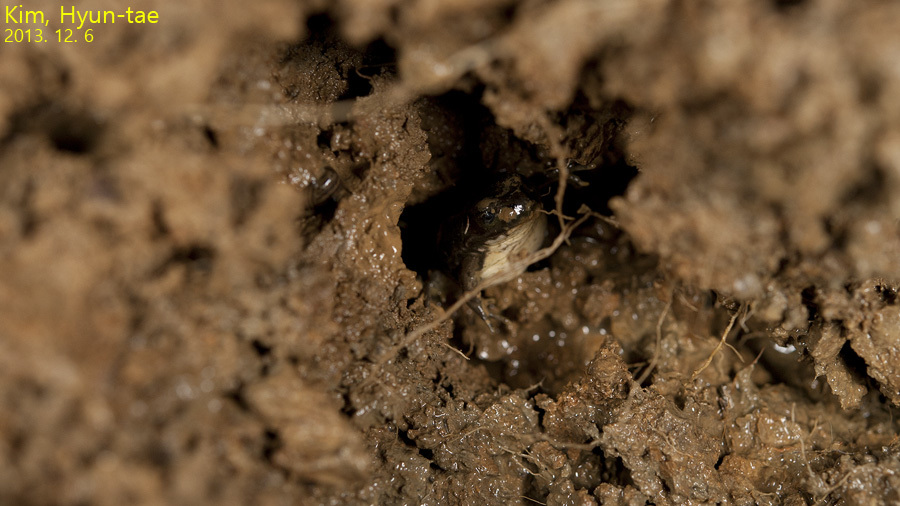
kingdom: Animalia
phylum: Chordata
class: Amphibia
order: Anura
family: Ranidae
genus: Pelophylax
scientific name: Pelophylax chosenicus
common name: Gold-spotted pond frog
